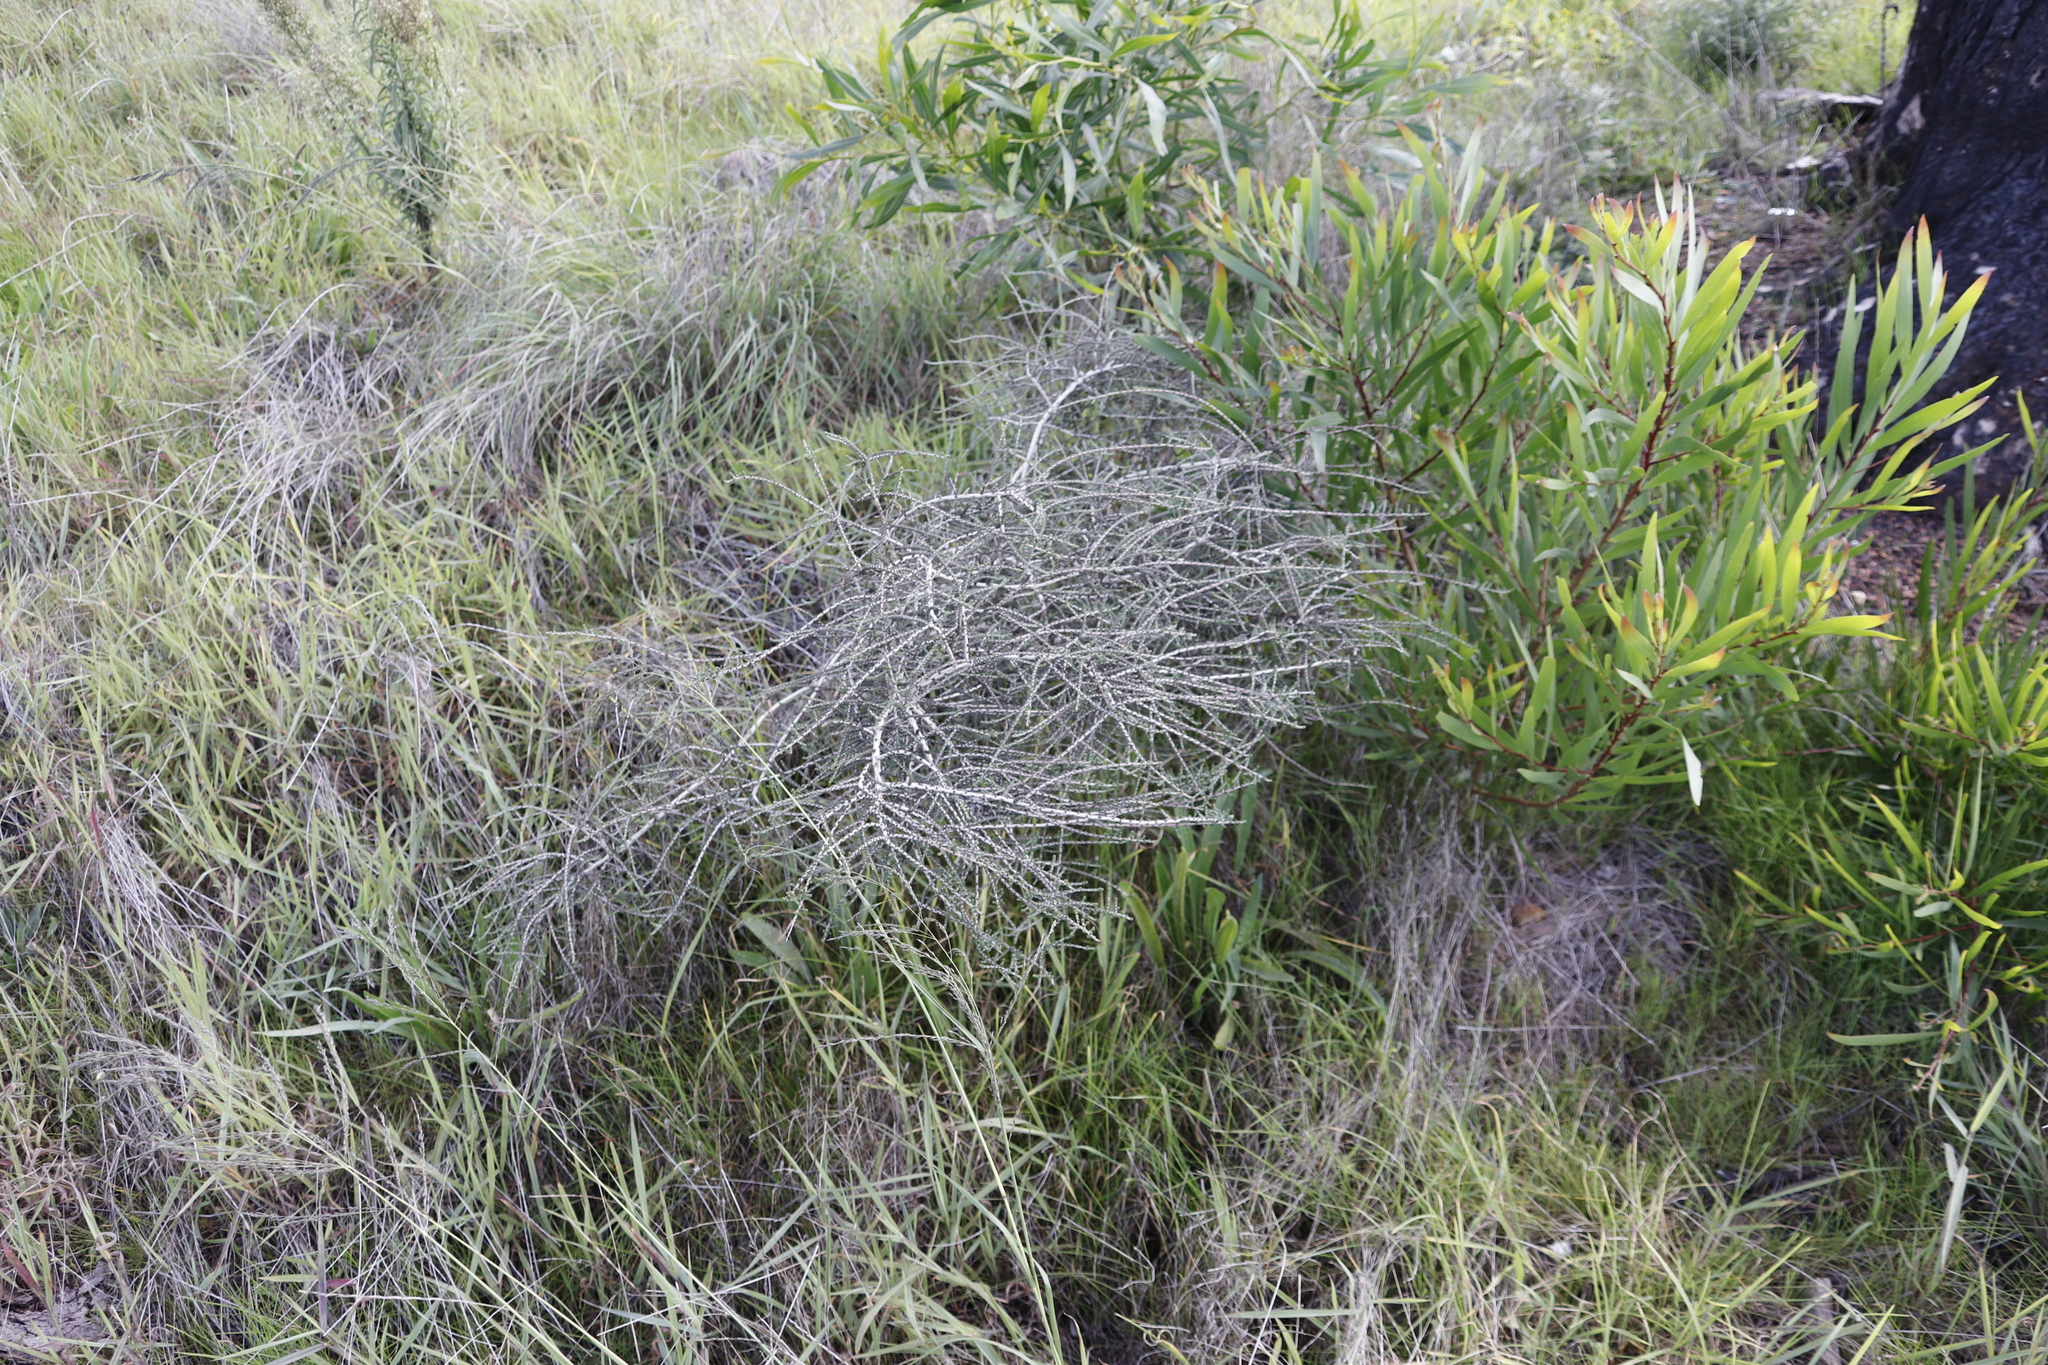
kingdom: Plantae
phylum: Tracheophyta
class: Magnoliopsida
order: Fabales
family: Fabaceae
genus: Aspalathus
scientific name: Aspalathus hispida
